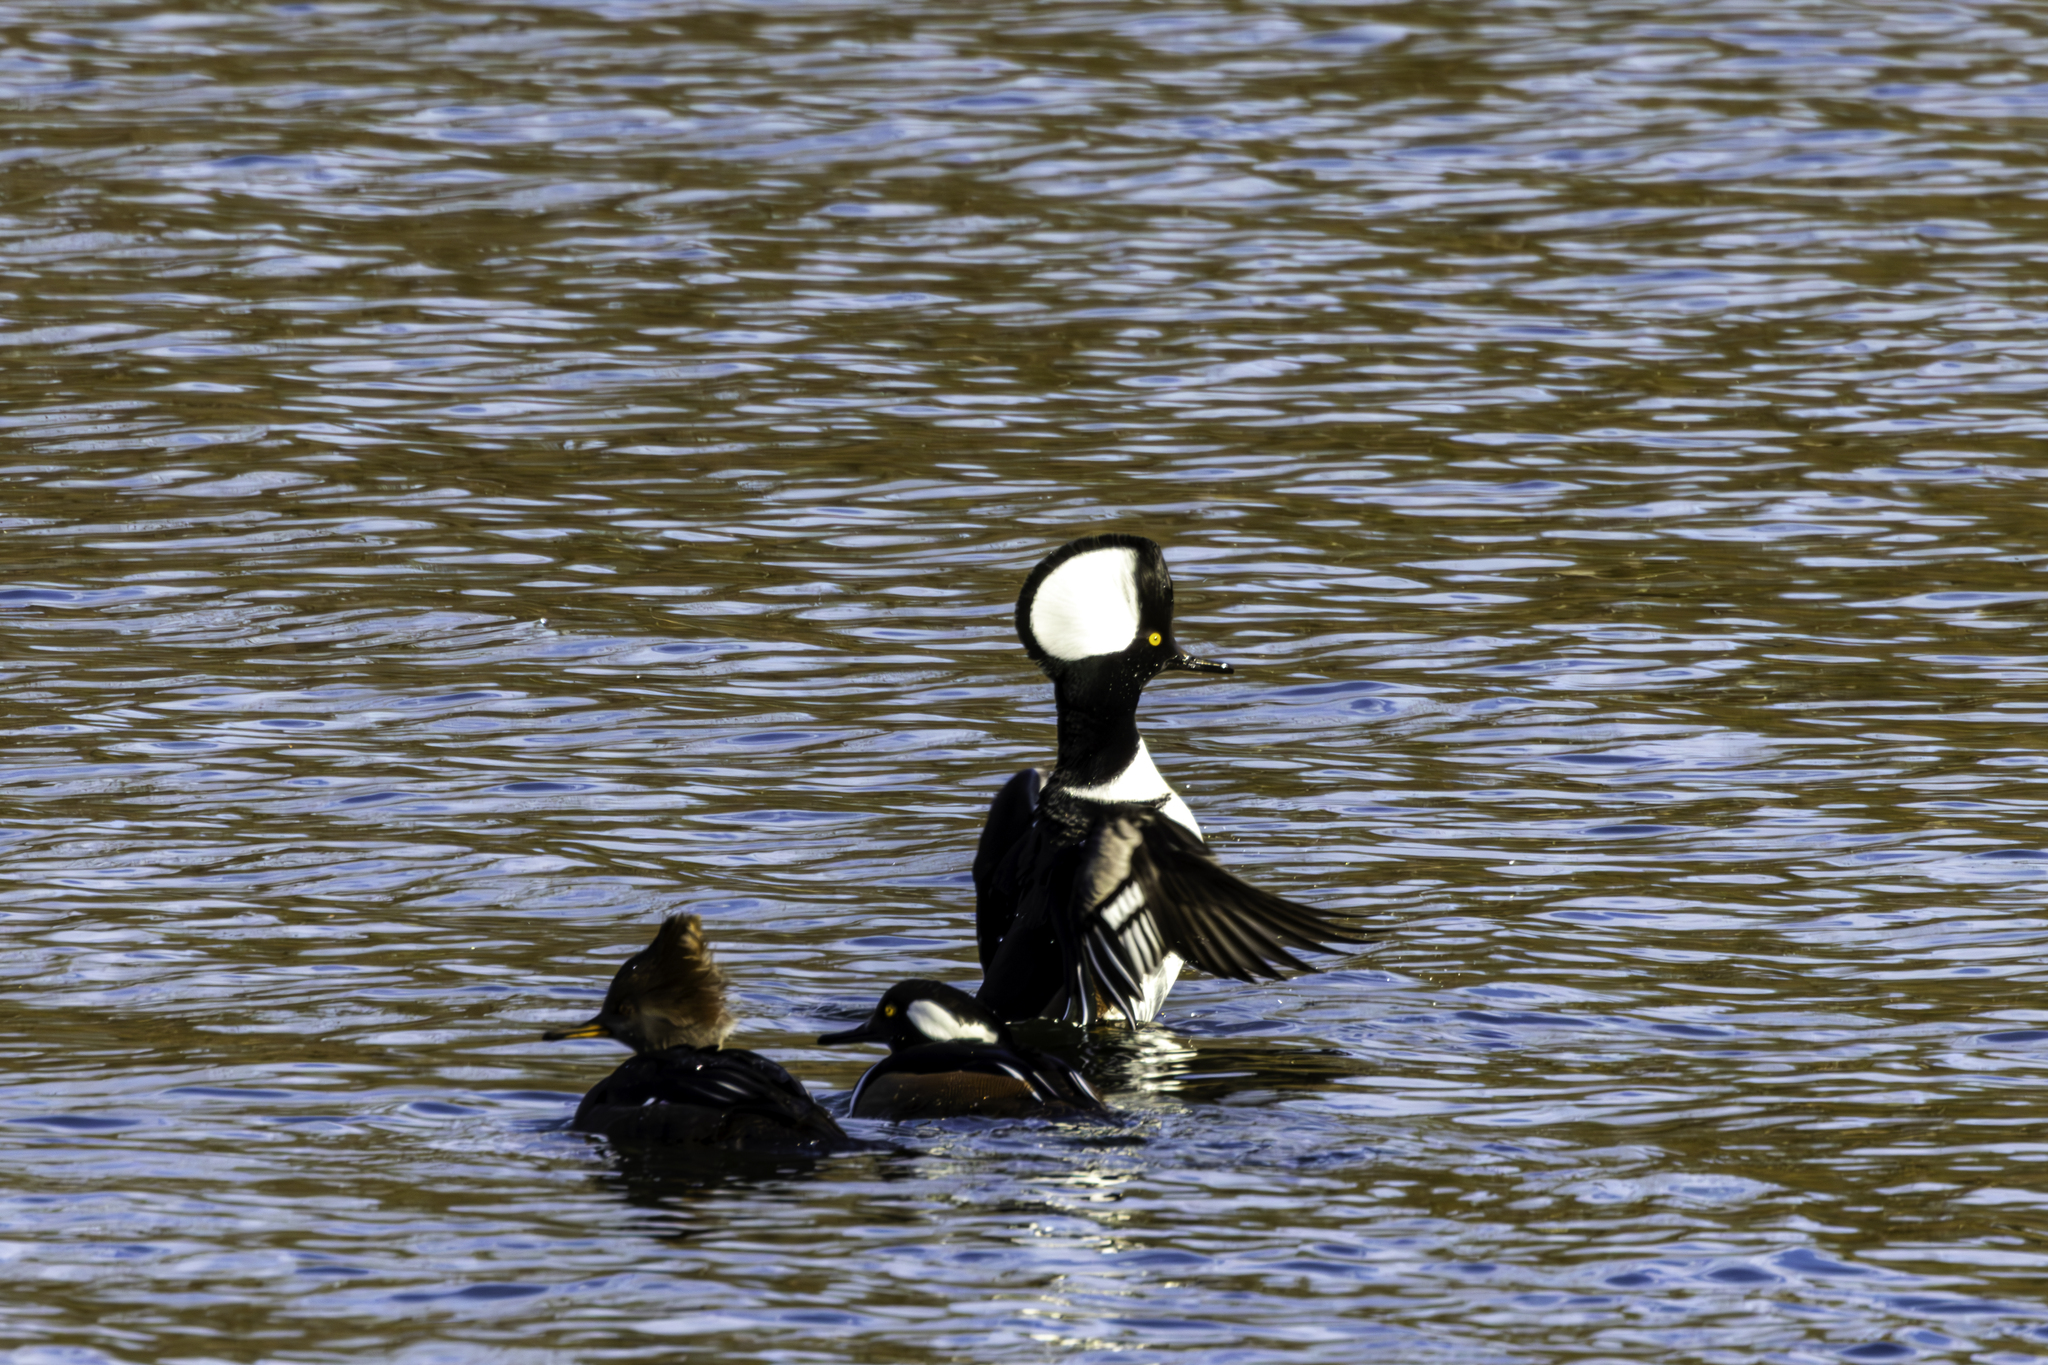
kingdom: Animalia
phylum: Chordata
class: Aves
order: Anseriformes
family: Anatidae
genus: Lophodytes
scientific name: Lophodytes cucullatus
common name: Hooded merganser
